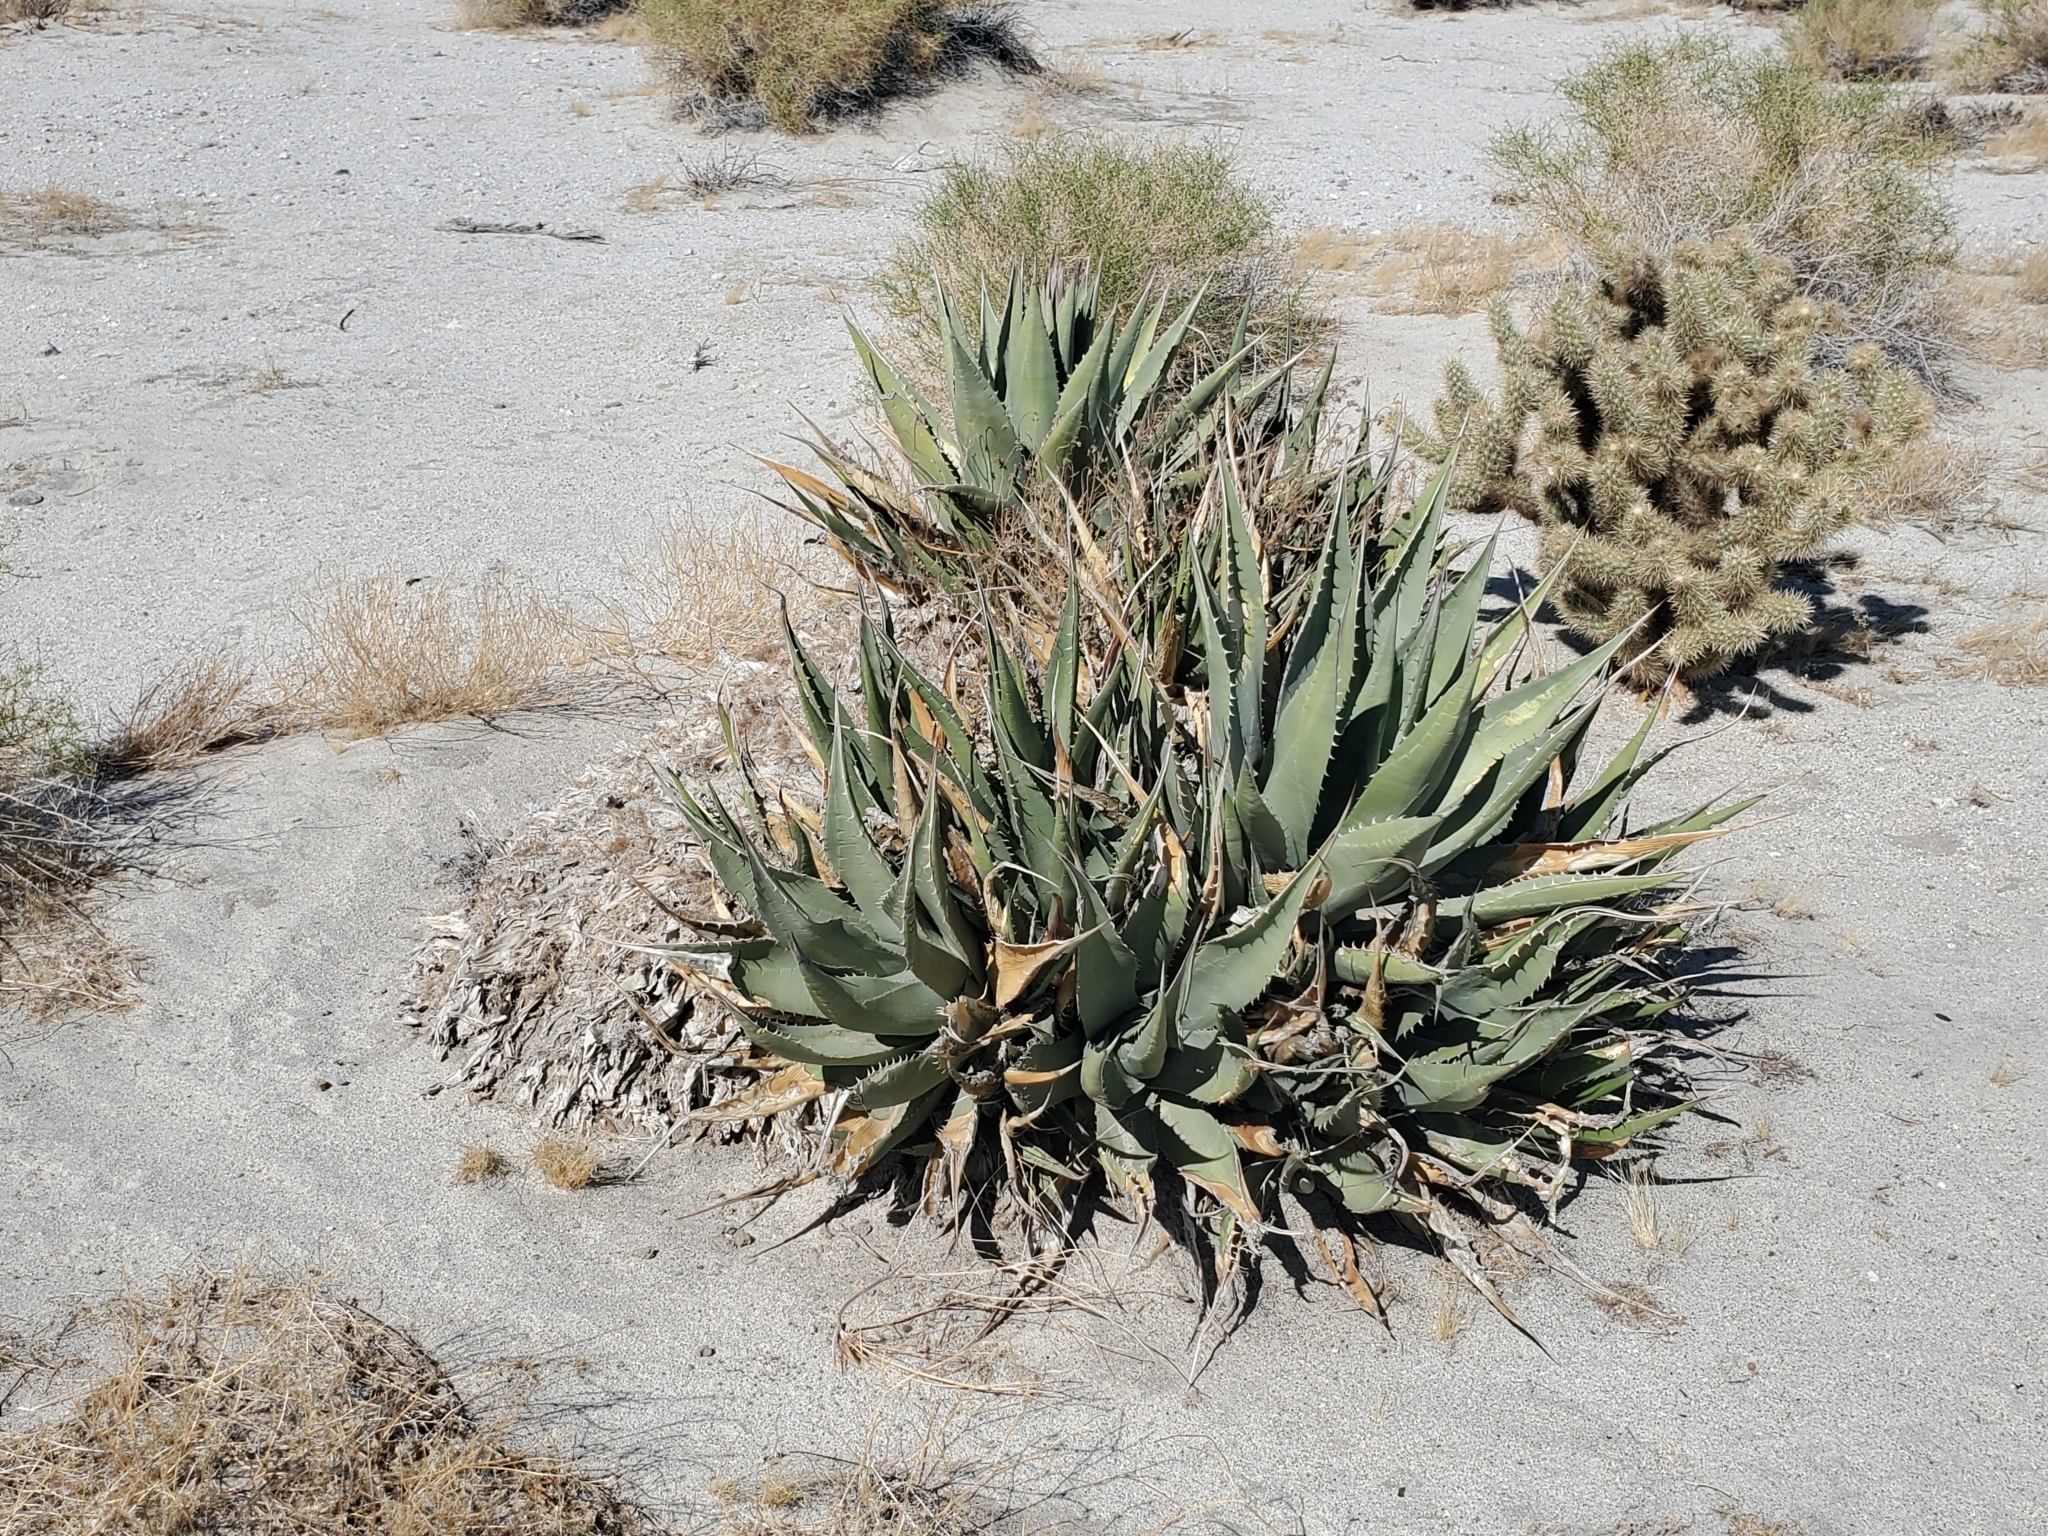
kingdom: Plantae
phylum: Tracheophyta
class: Liliopsida
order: Asparagales
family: Asparagaceae
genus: Agave
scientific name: Agave deserti
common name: Desert agave
